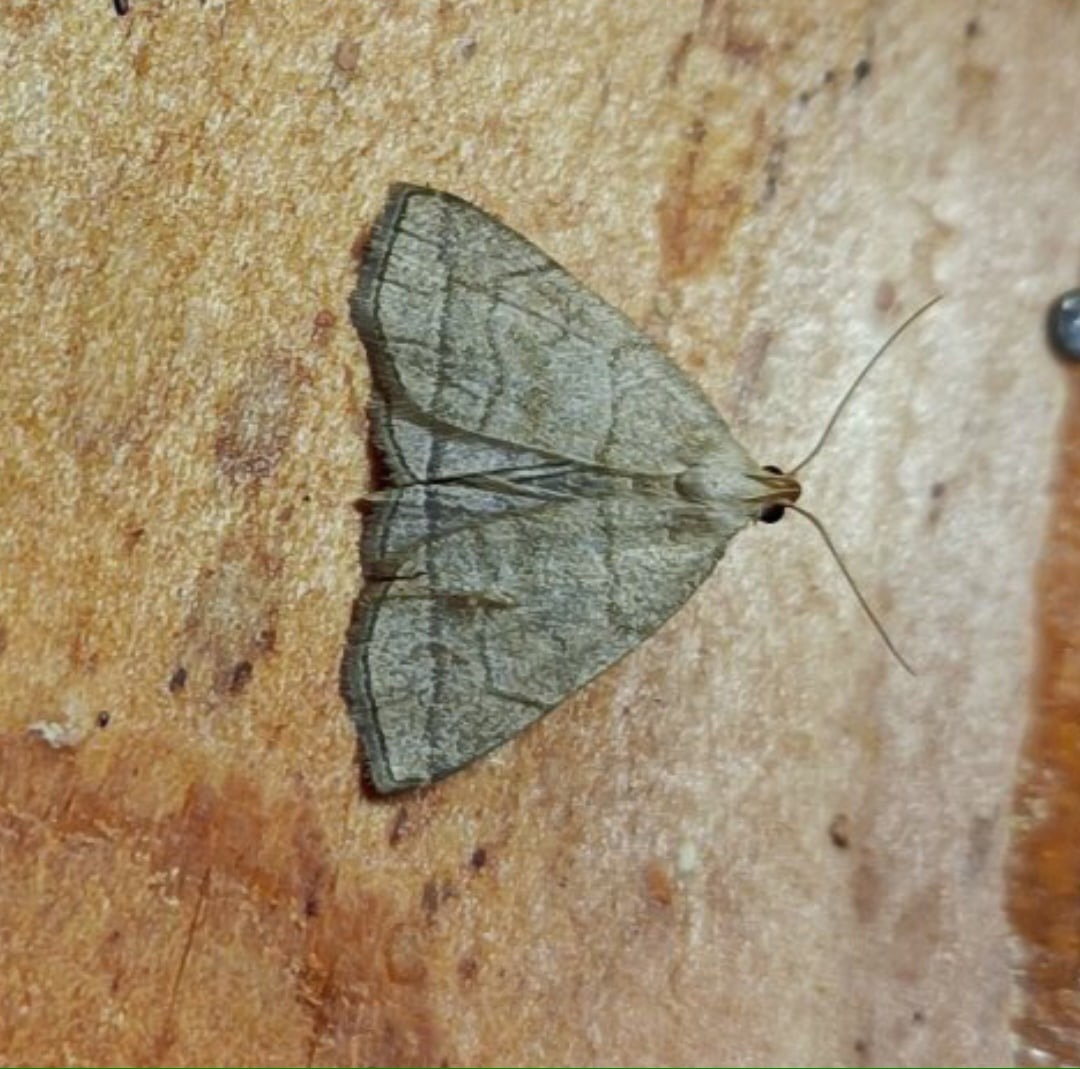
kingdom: Animalia
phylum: Arthropoda
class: Insecta
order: Lepidoptera
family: Erebidae
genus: Herminia
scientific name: Herminia tarsicrinalis
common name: Shaded fan-foot
